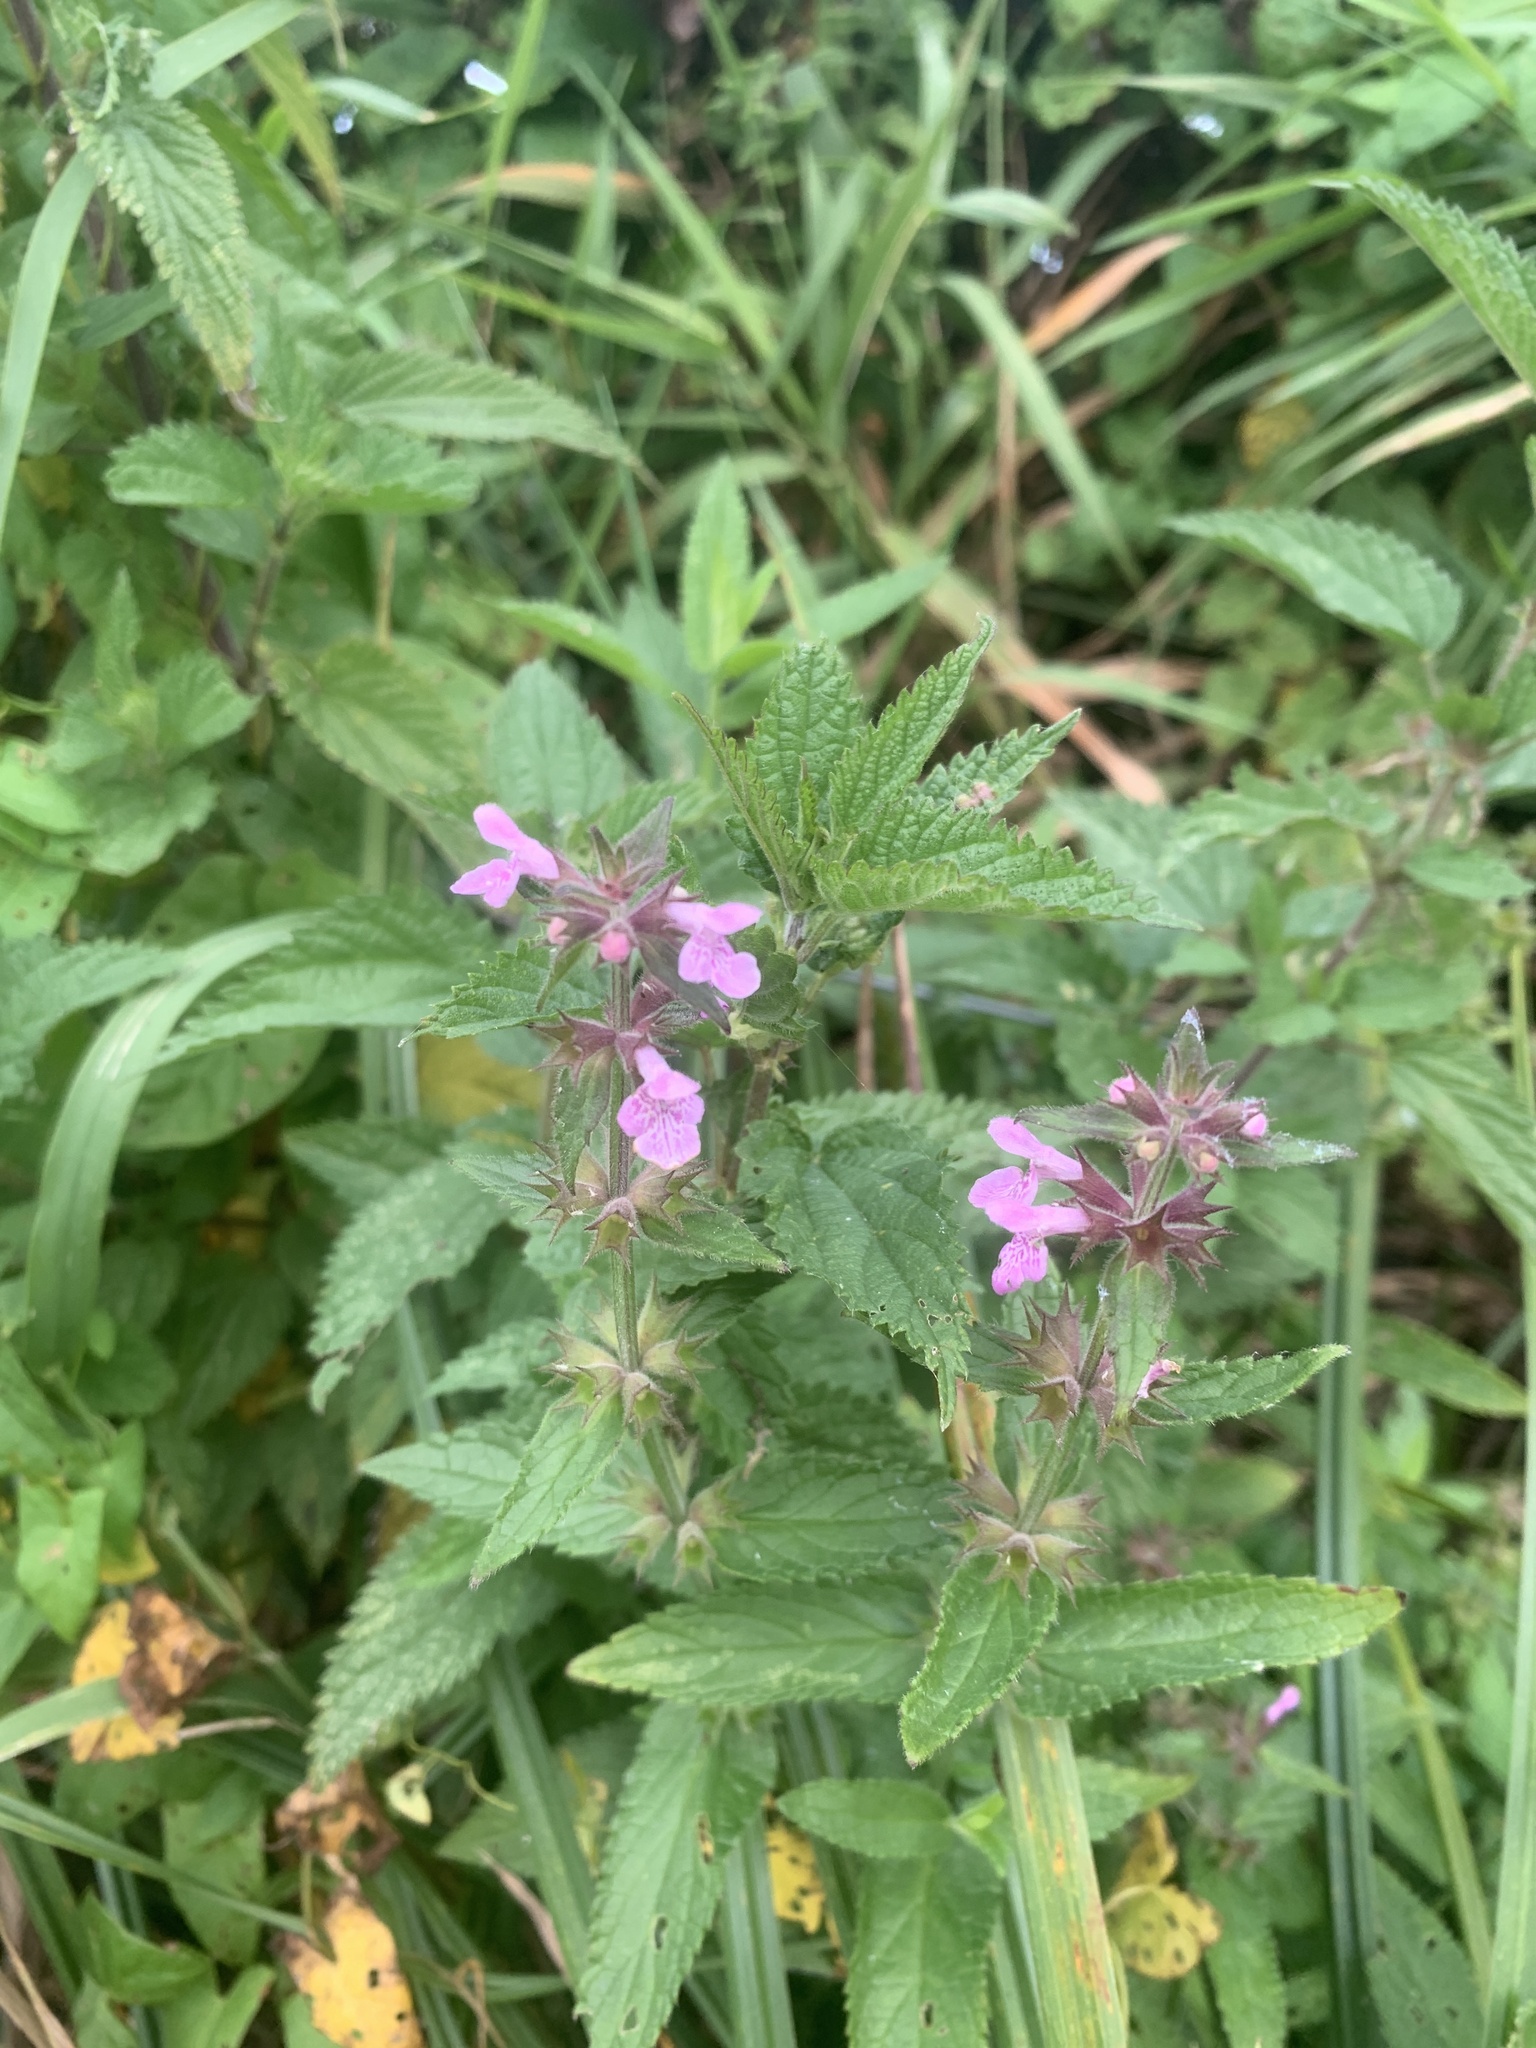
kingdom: Plantae
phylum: Tracheophyta
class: Magnoliopsida
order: Lamiales
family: Lamiaceae
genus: Stachys
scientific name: Stachys palustris
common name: Marsh woundwort
